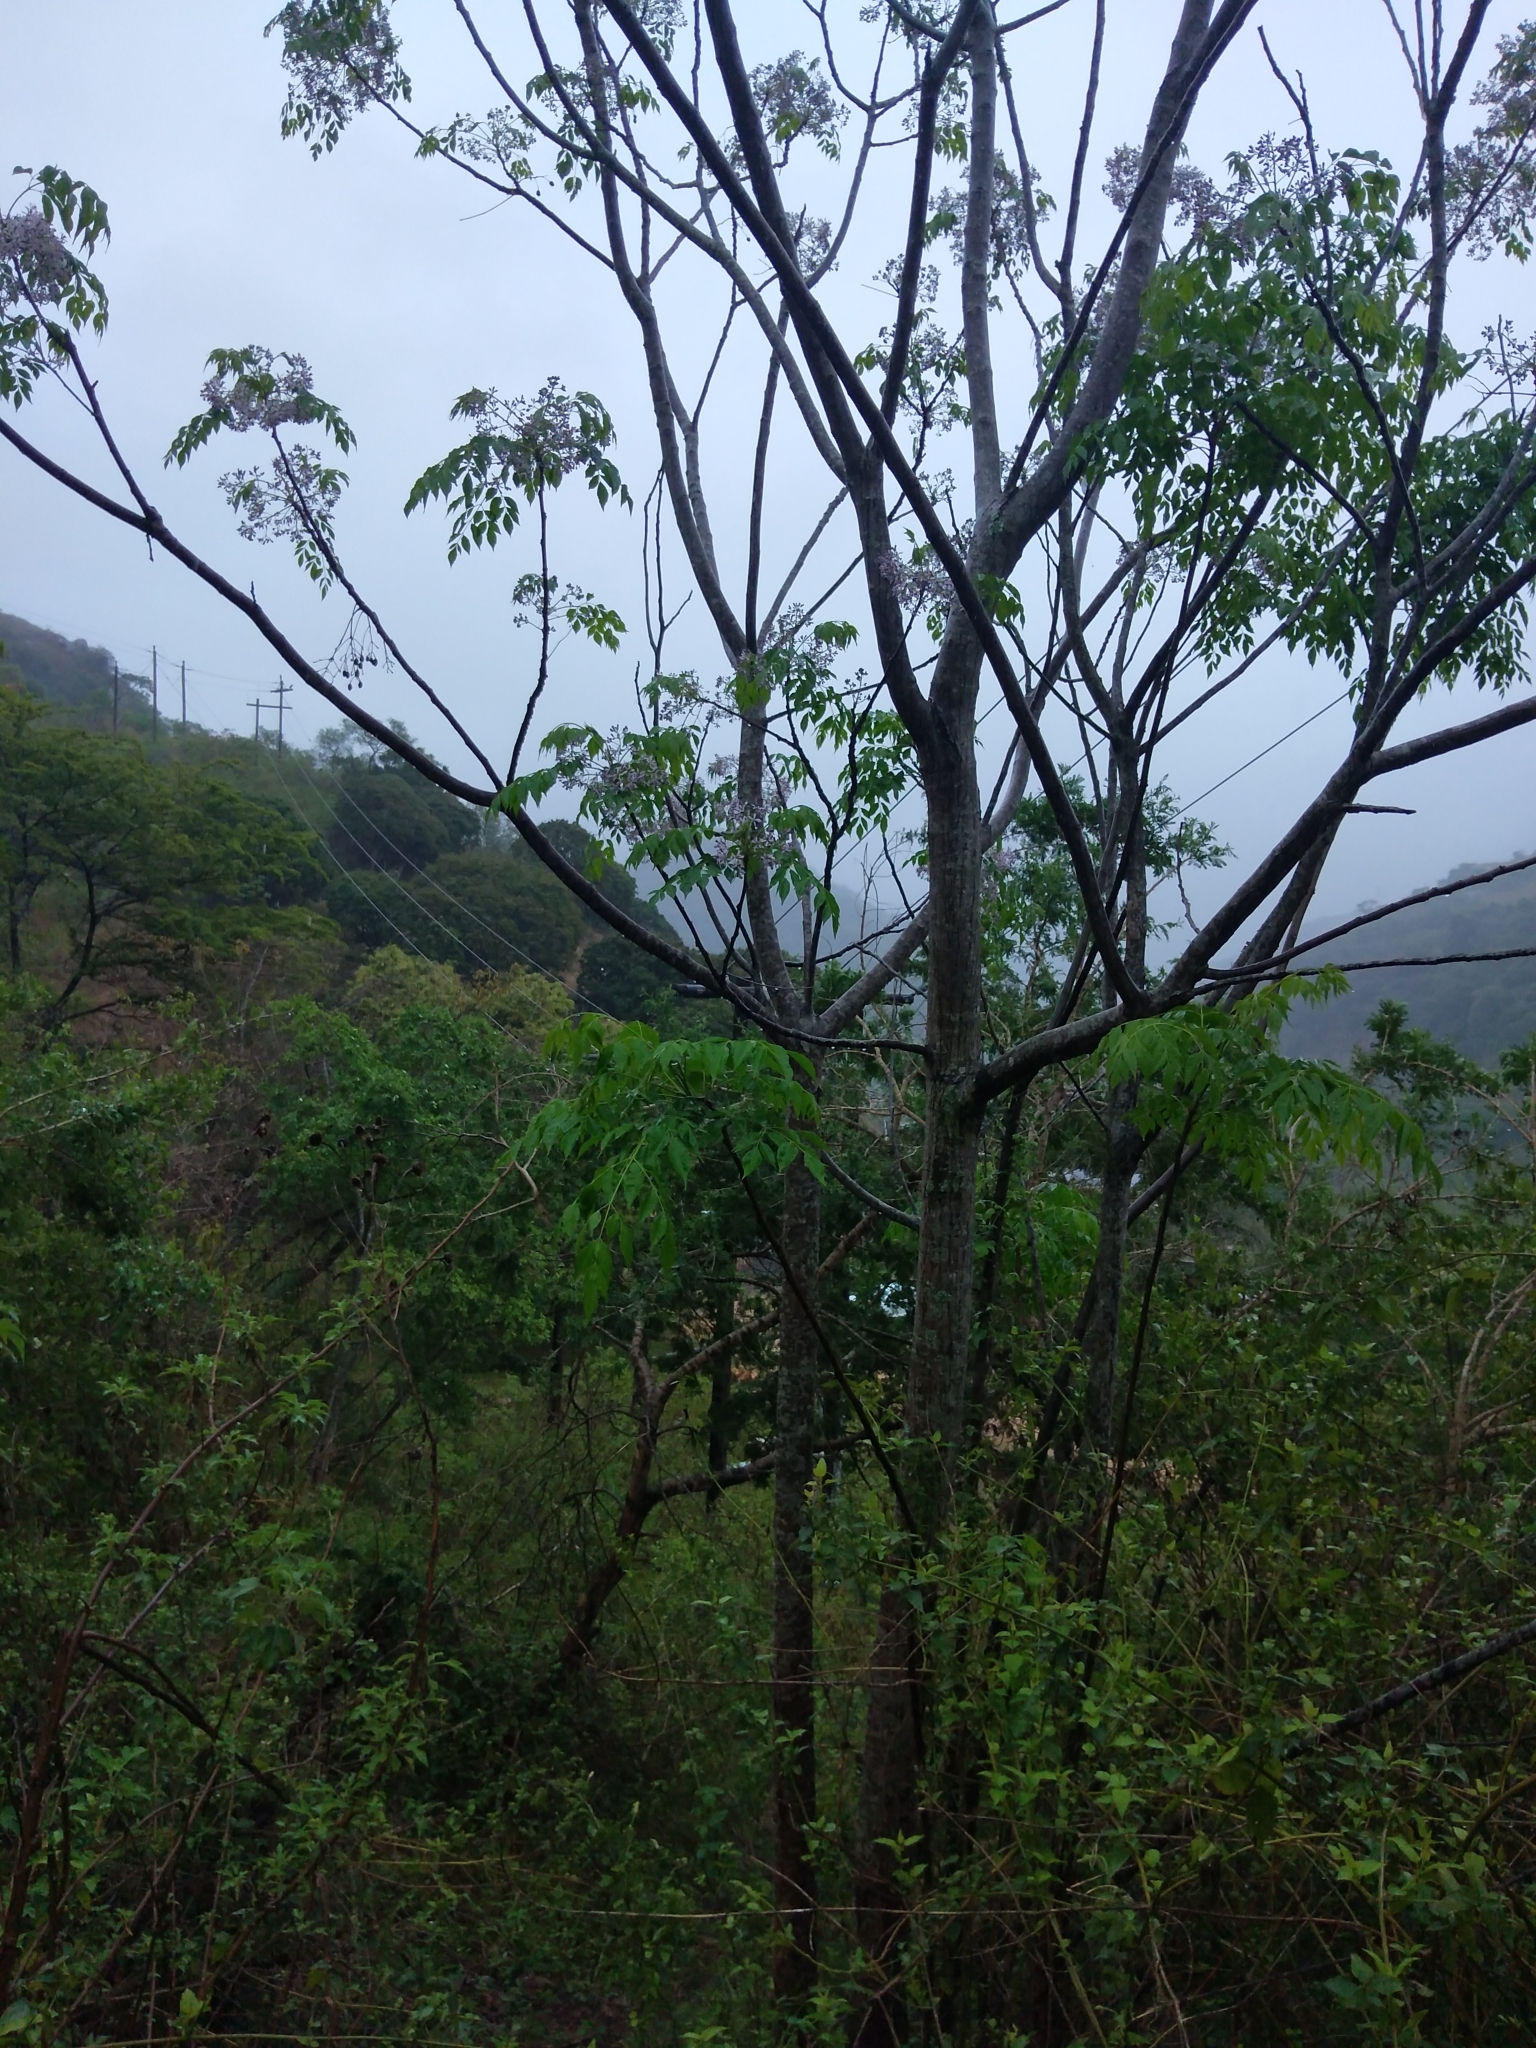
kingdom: Plantae
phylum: Tracheophyta
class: Magnoliopsida
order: Sapindales
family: Meliaceae
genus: Melia
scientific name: Melia azedarach
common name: Chinaberrytree
